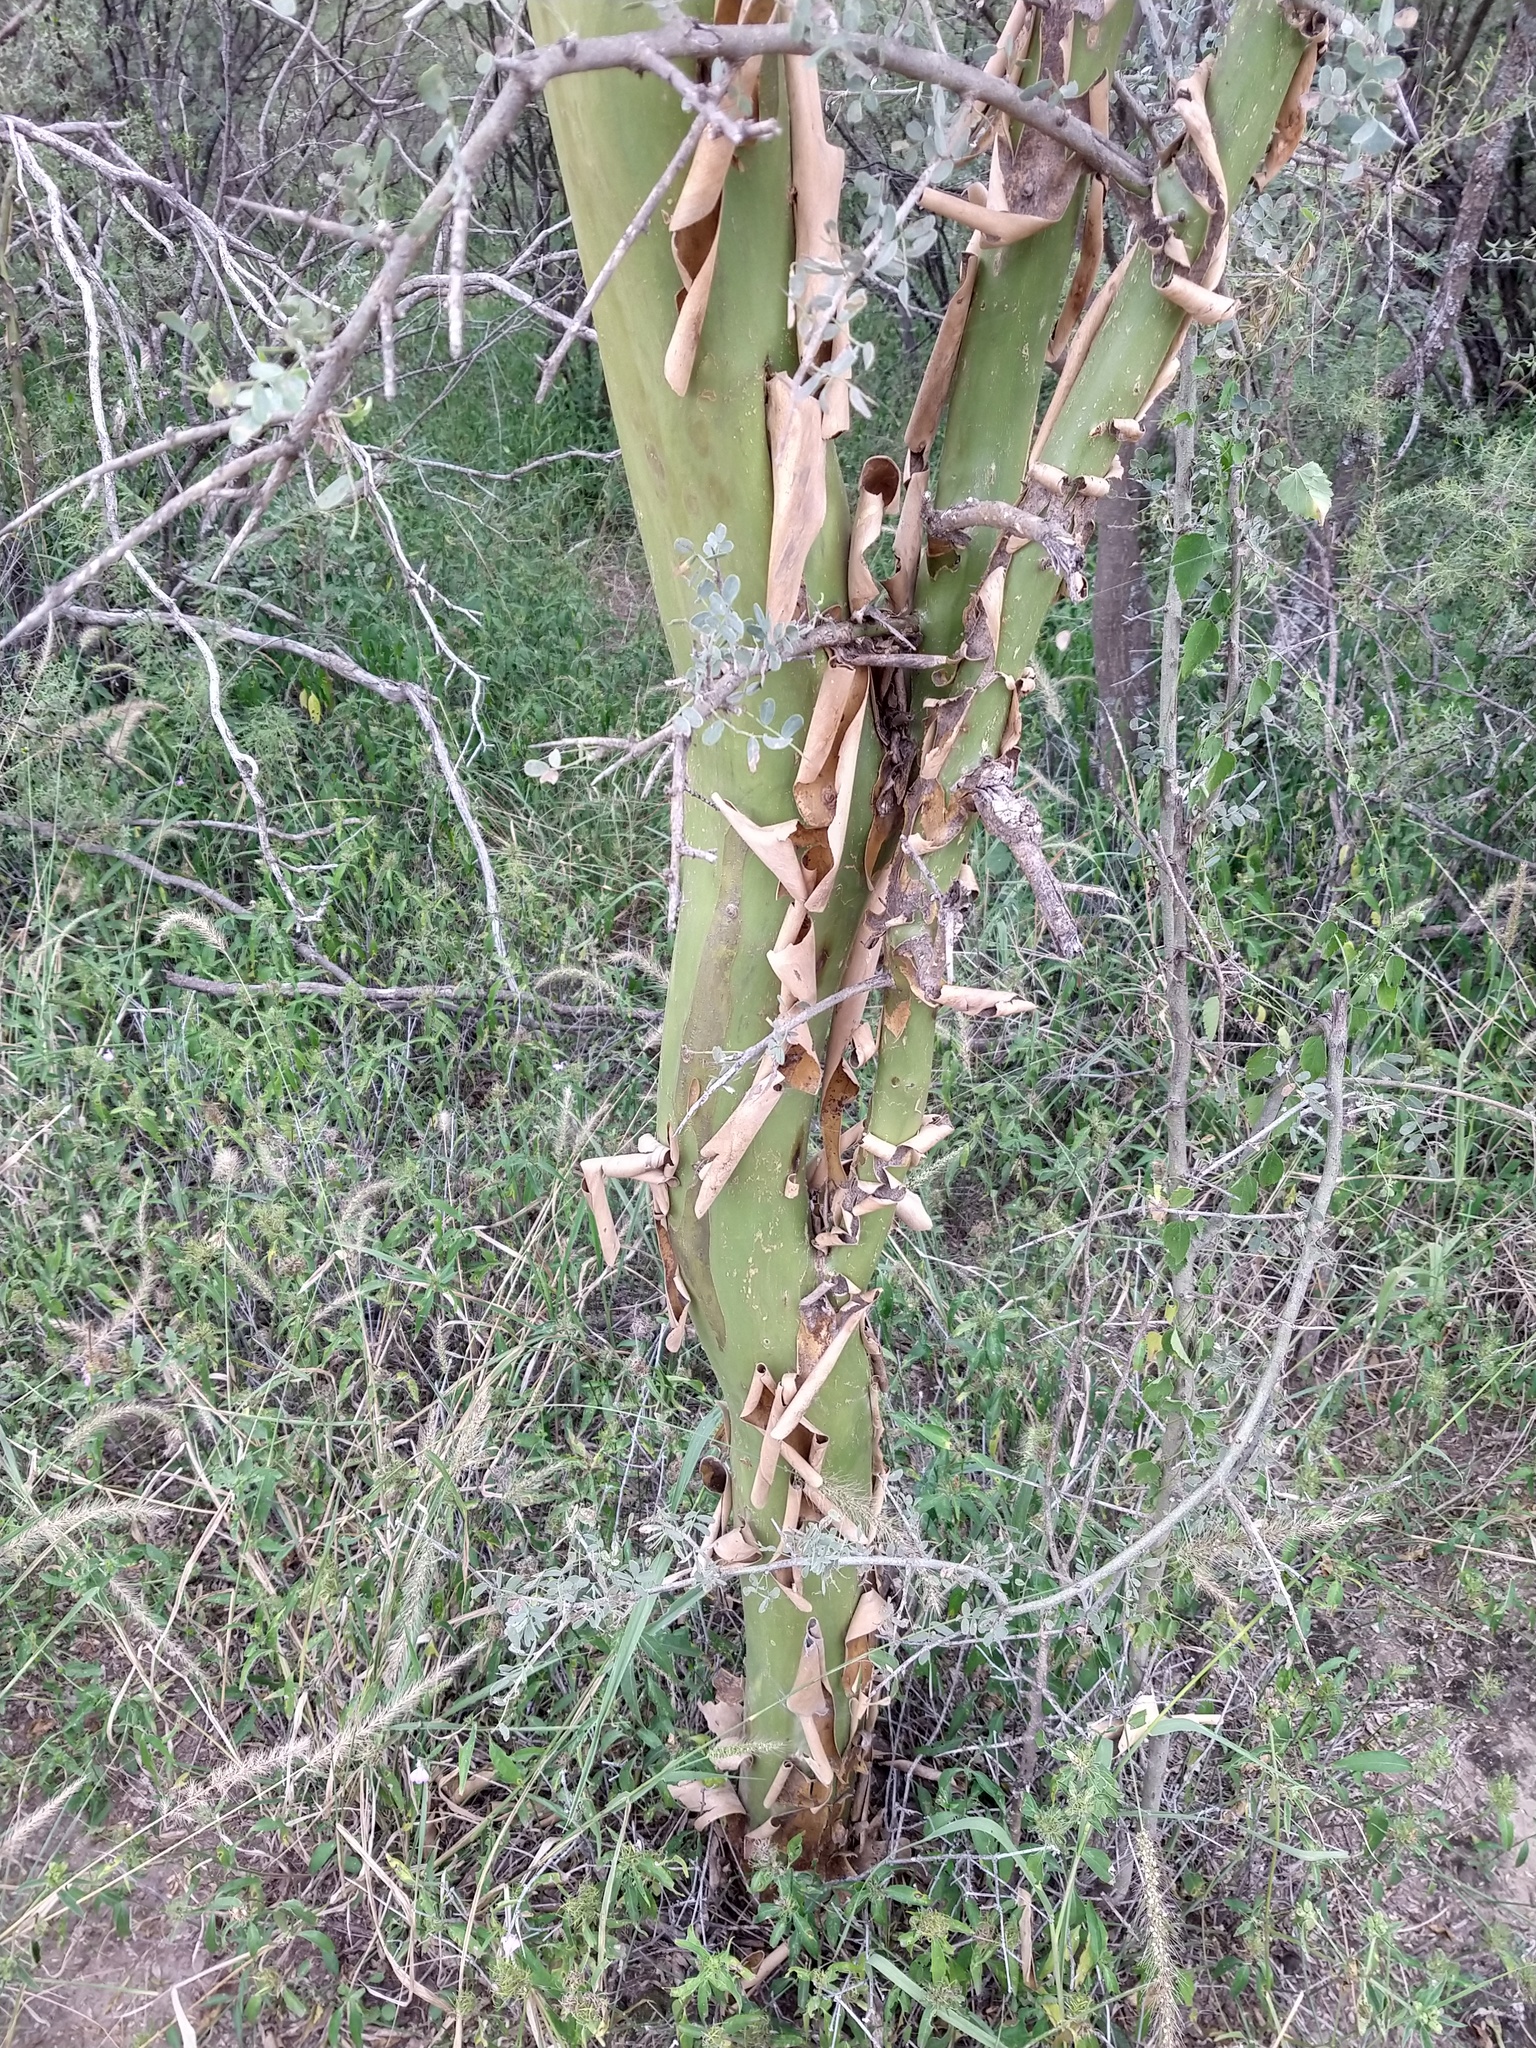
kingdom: Plantae
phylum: Tracheophyta
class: Magnoliopsida
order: Fabales
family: Fabaceae
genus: Geoffroea
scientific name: Geoffroea decorticans
